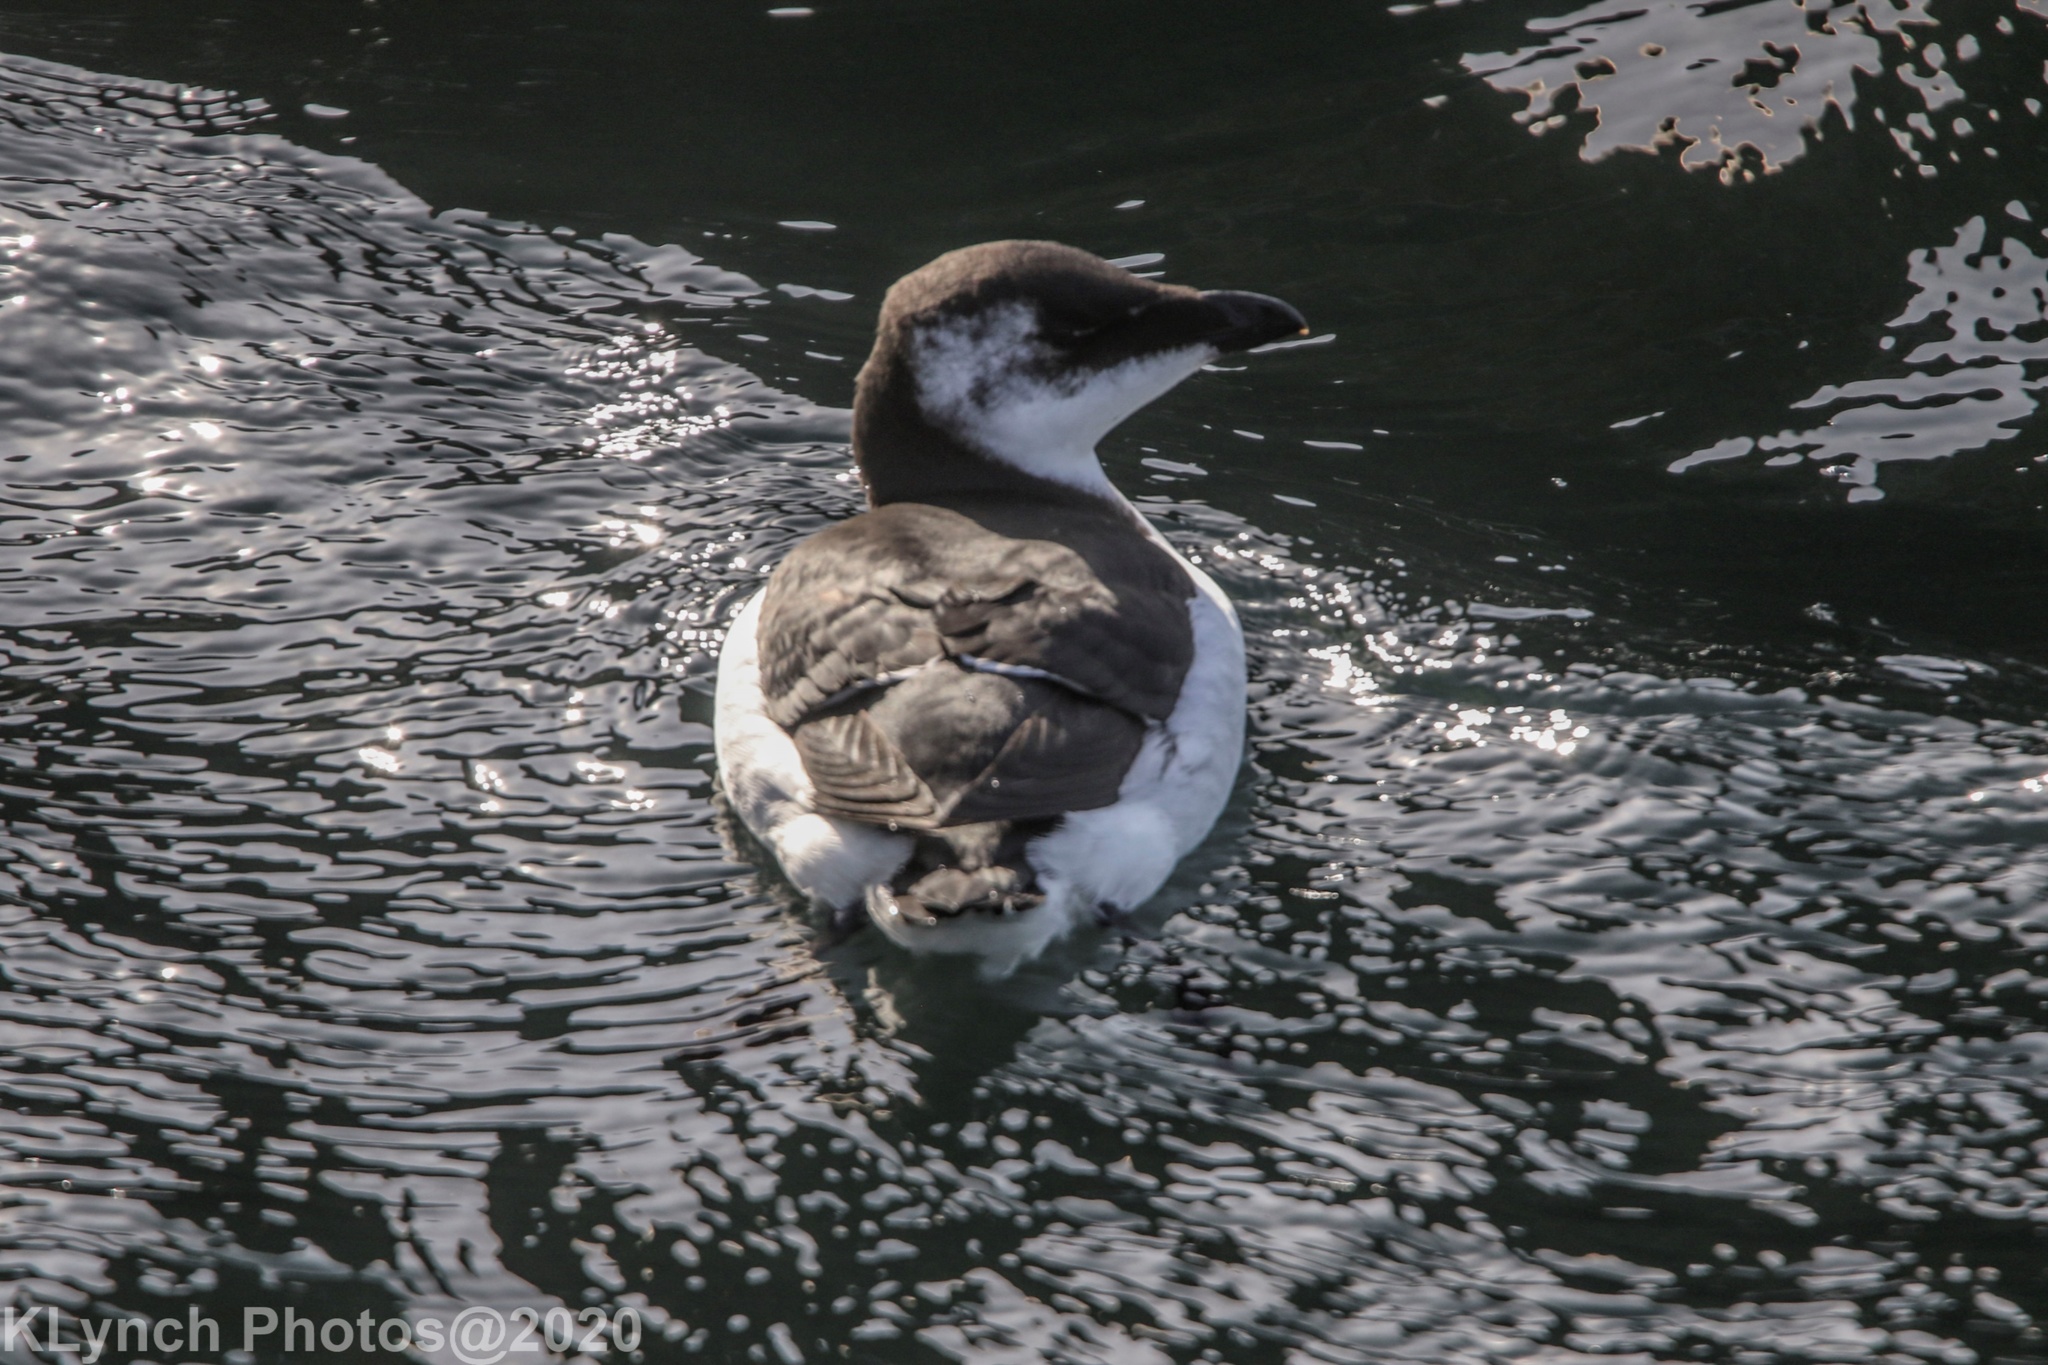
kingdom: Animalia
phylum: Chordata
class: Aves
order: Charadriiformes
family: Alcidae
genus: Alca
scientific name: Alca torda
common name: Razorbill
